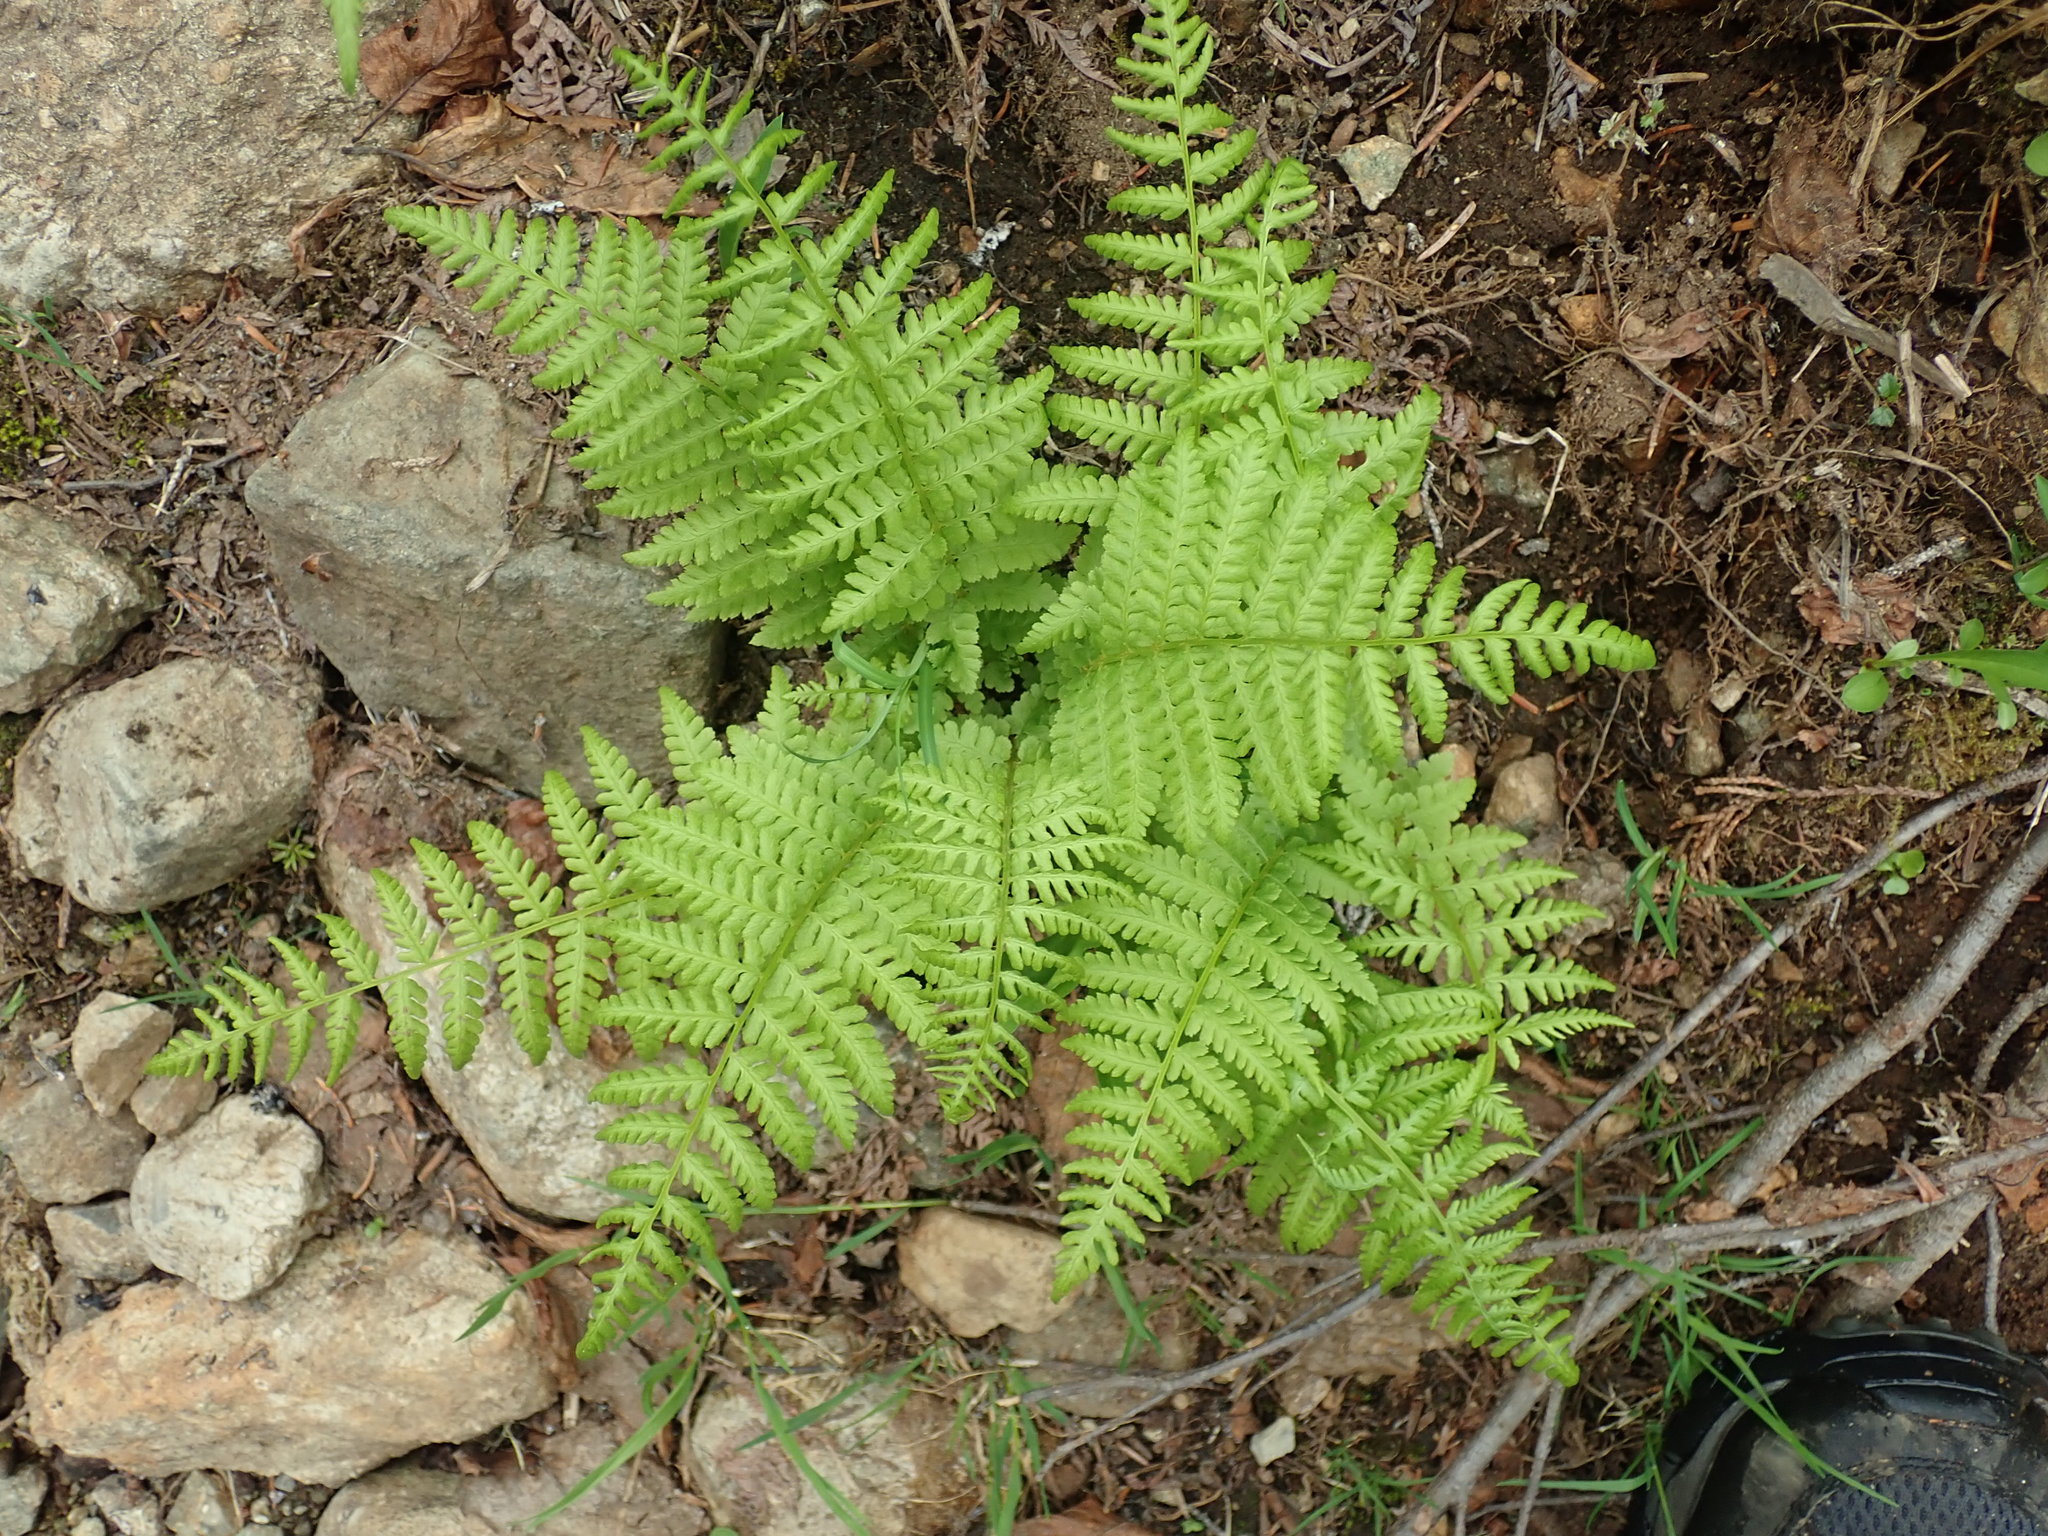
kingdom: Plantae
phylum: Tracheophyta
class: Polypodiopsida
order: Polypodiales
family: Athyriaceae
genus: Athyrium
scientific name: Athyrium filix-femina
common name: Lady fern
